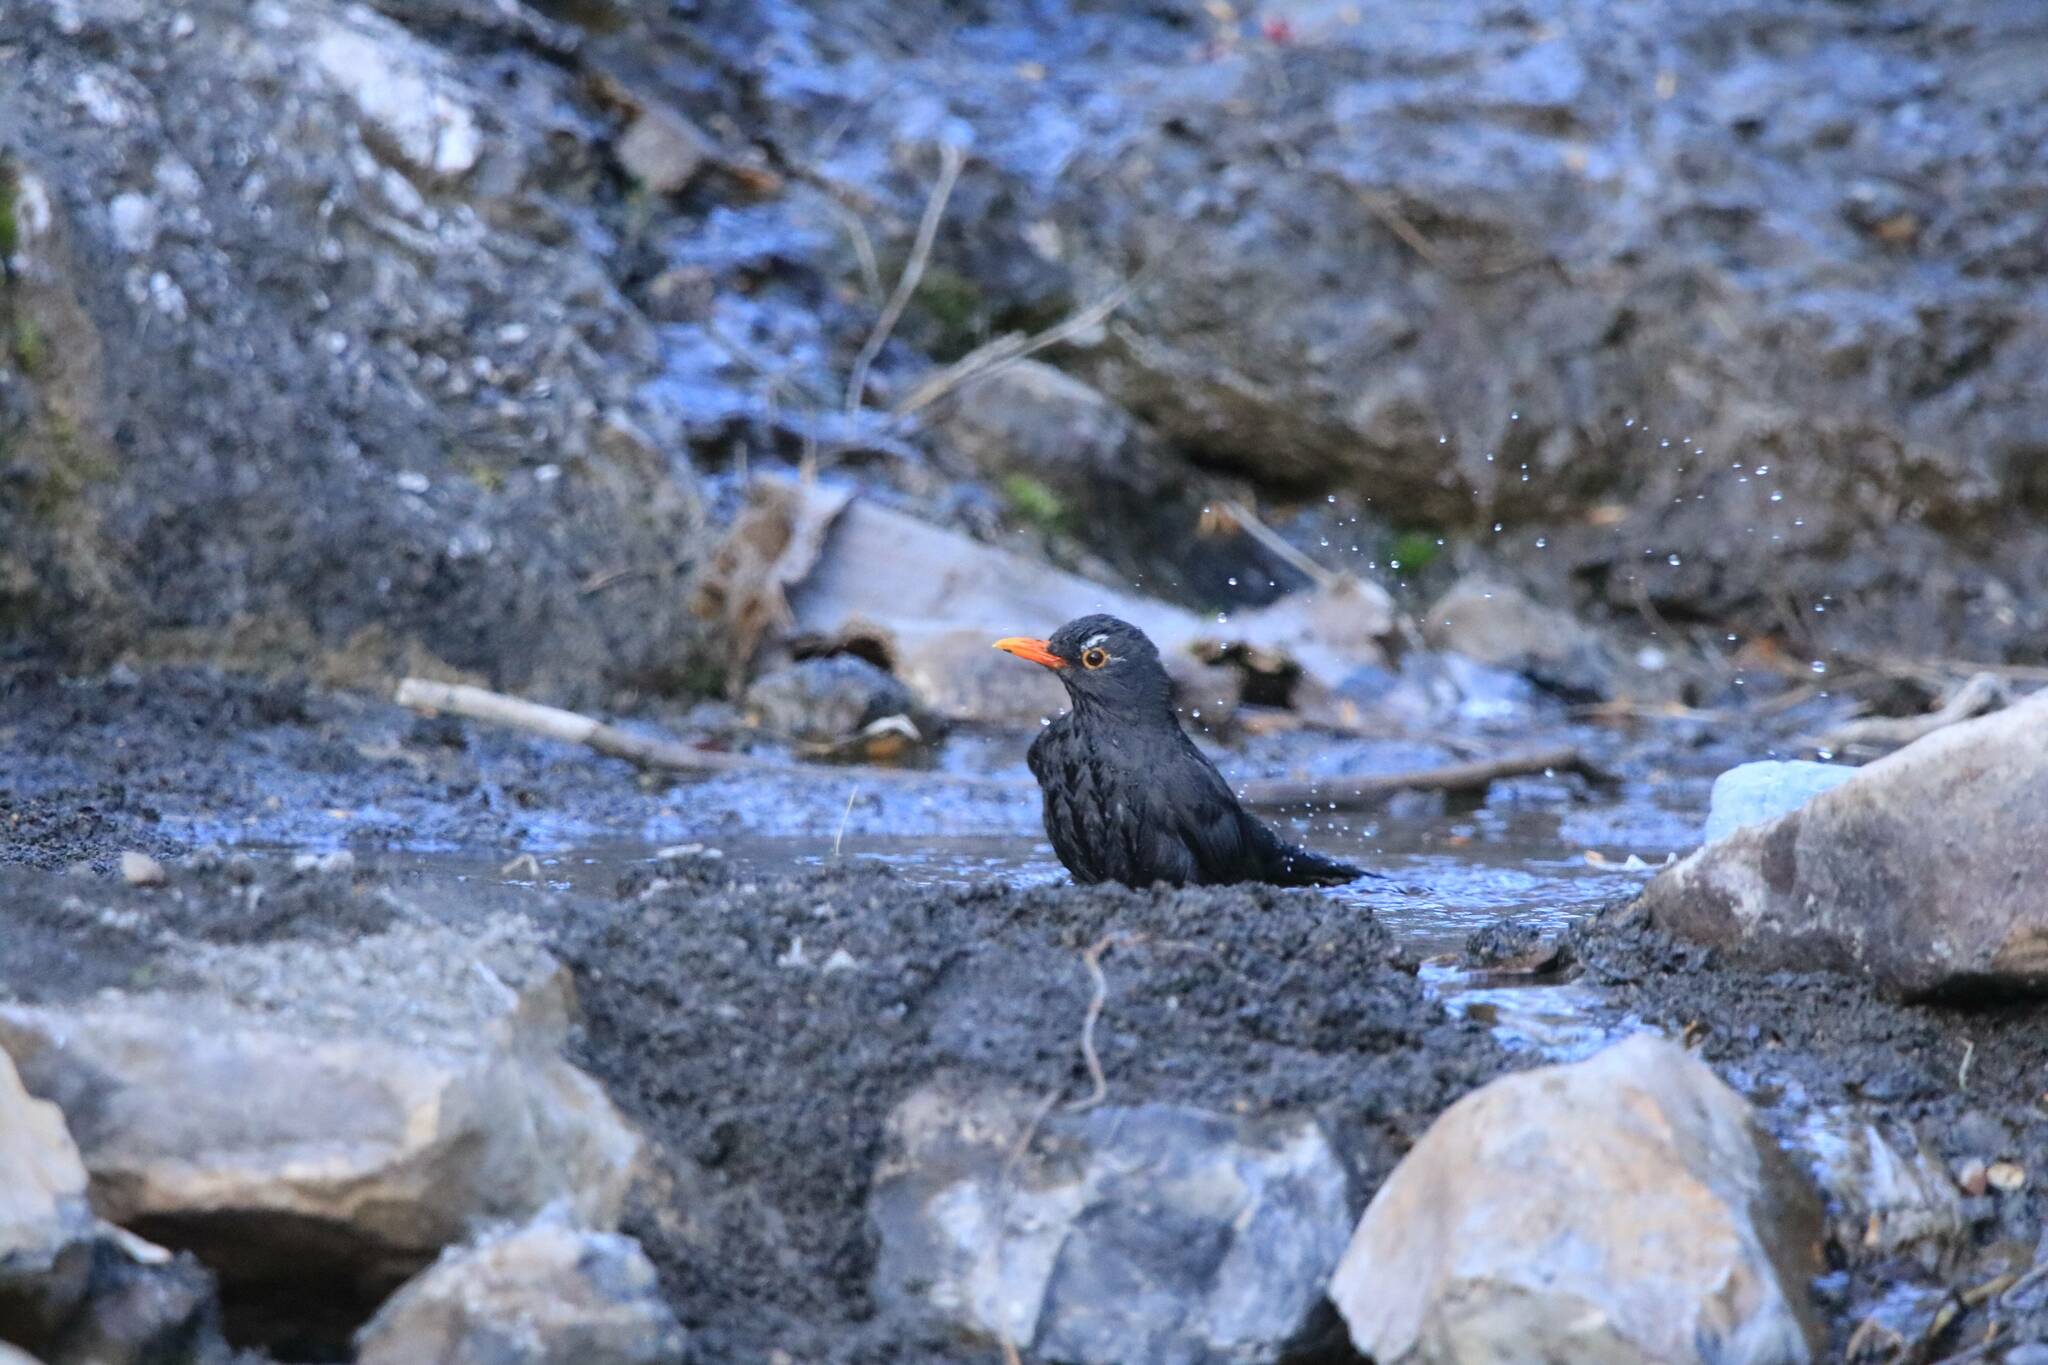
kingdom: Animalia
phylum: Chordata
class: Aves
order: Passeriformes
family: Turdidae
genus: Turdus
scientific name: Turdus merula
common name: Common blackbird
